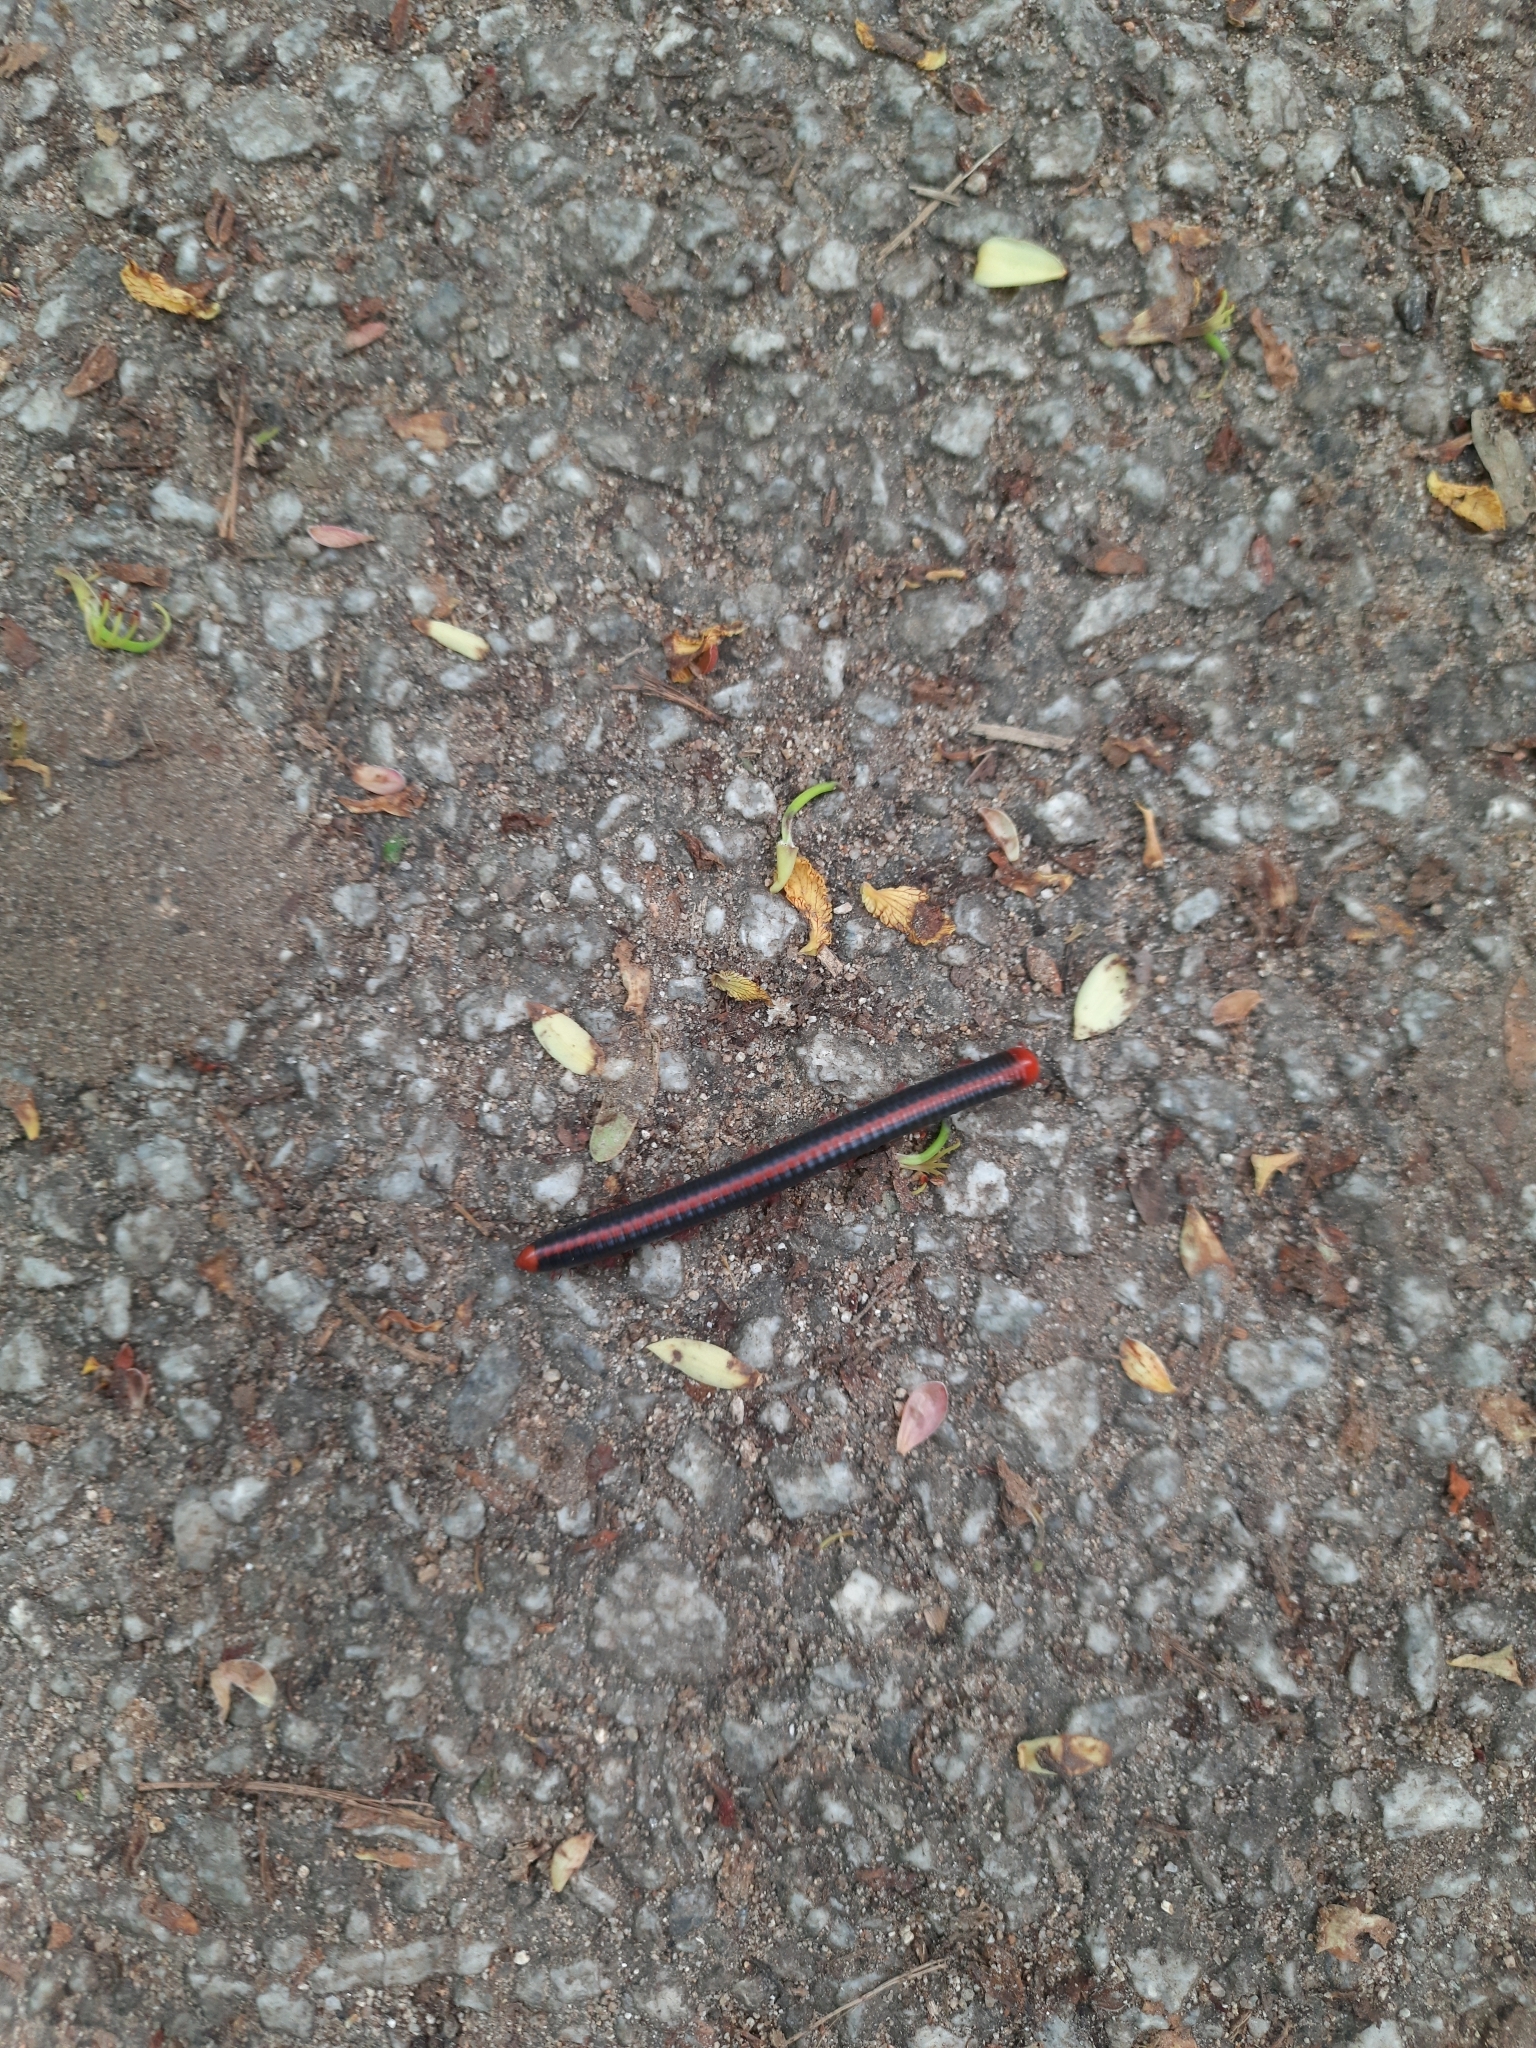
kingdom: Animalia
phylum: Arthropoda
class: Diplopoda
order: Spirobolida
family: Pachybolidae
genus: Xenobolus
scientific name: Xenobolus carnifex
